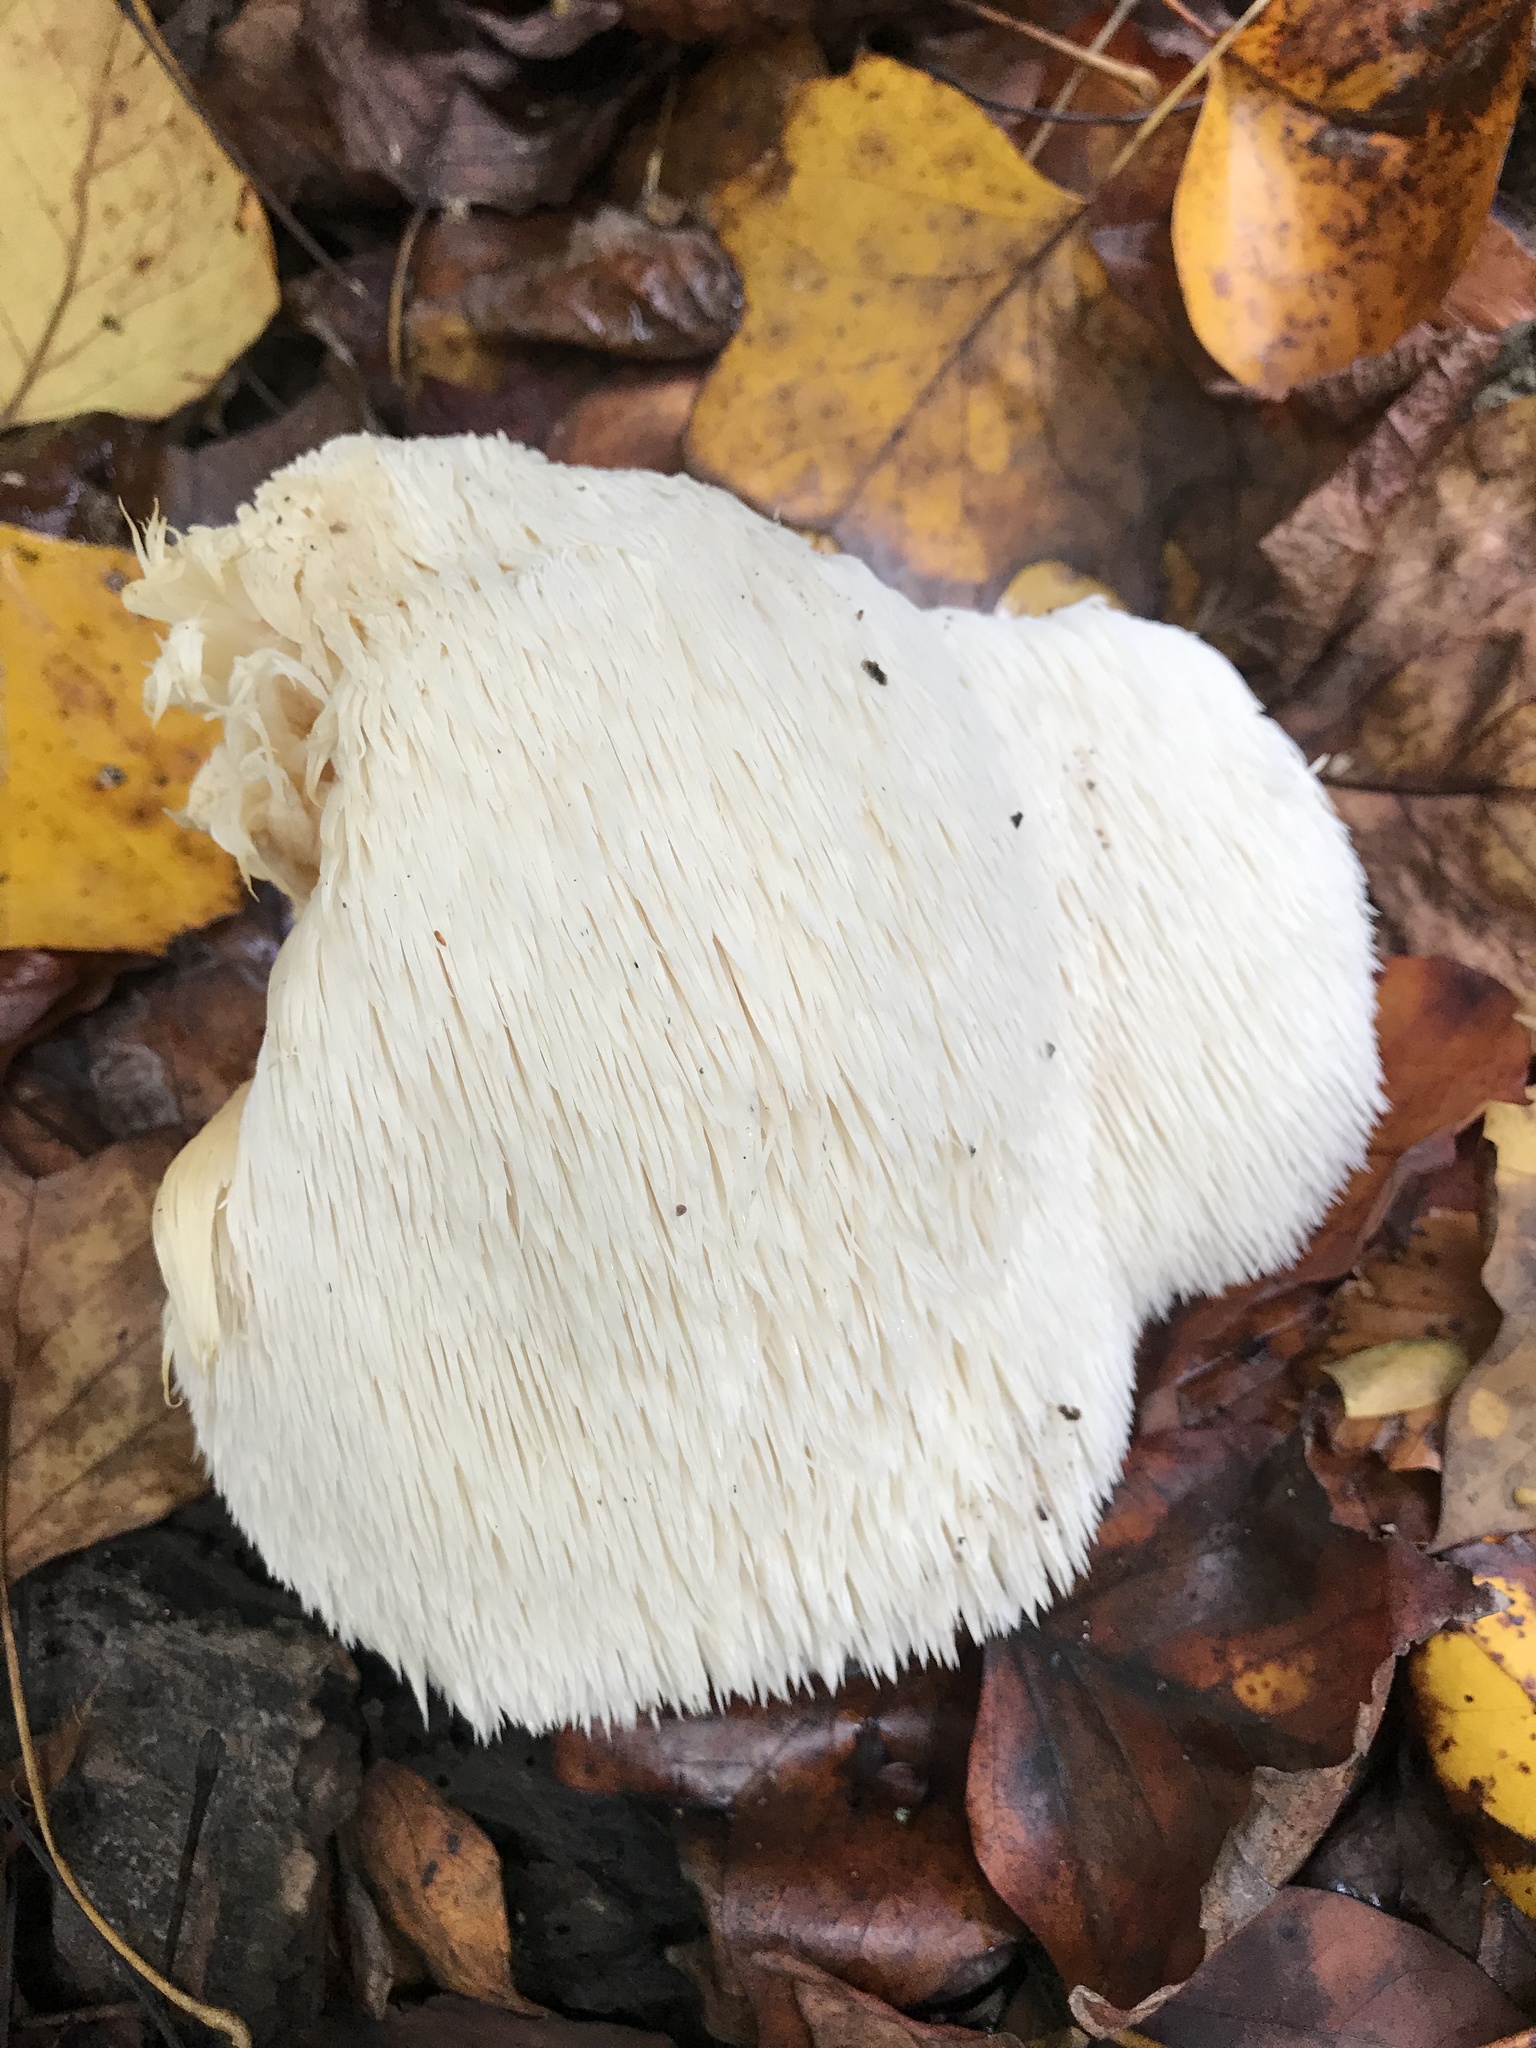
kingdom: Fungi
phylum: Basidiomycota
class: Agaricomycetes
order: Russulales
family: Hericiaceae
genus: Hericium
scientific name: Hericium erinaceus
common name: Bearded tooth
